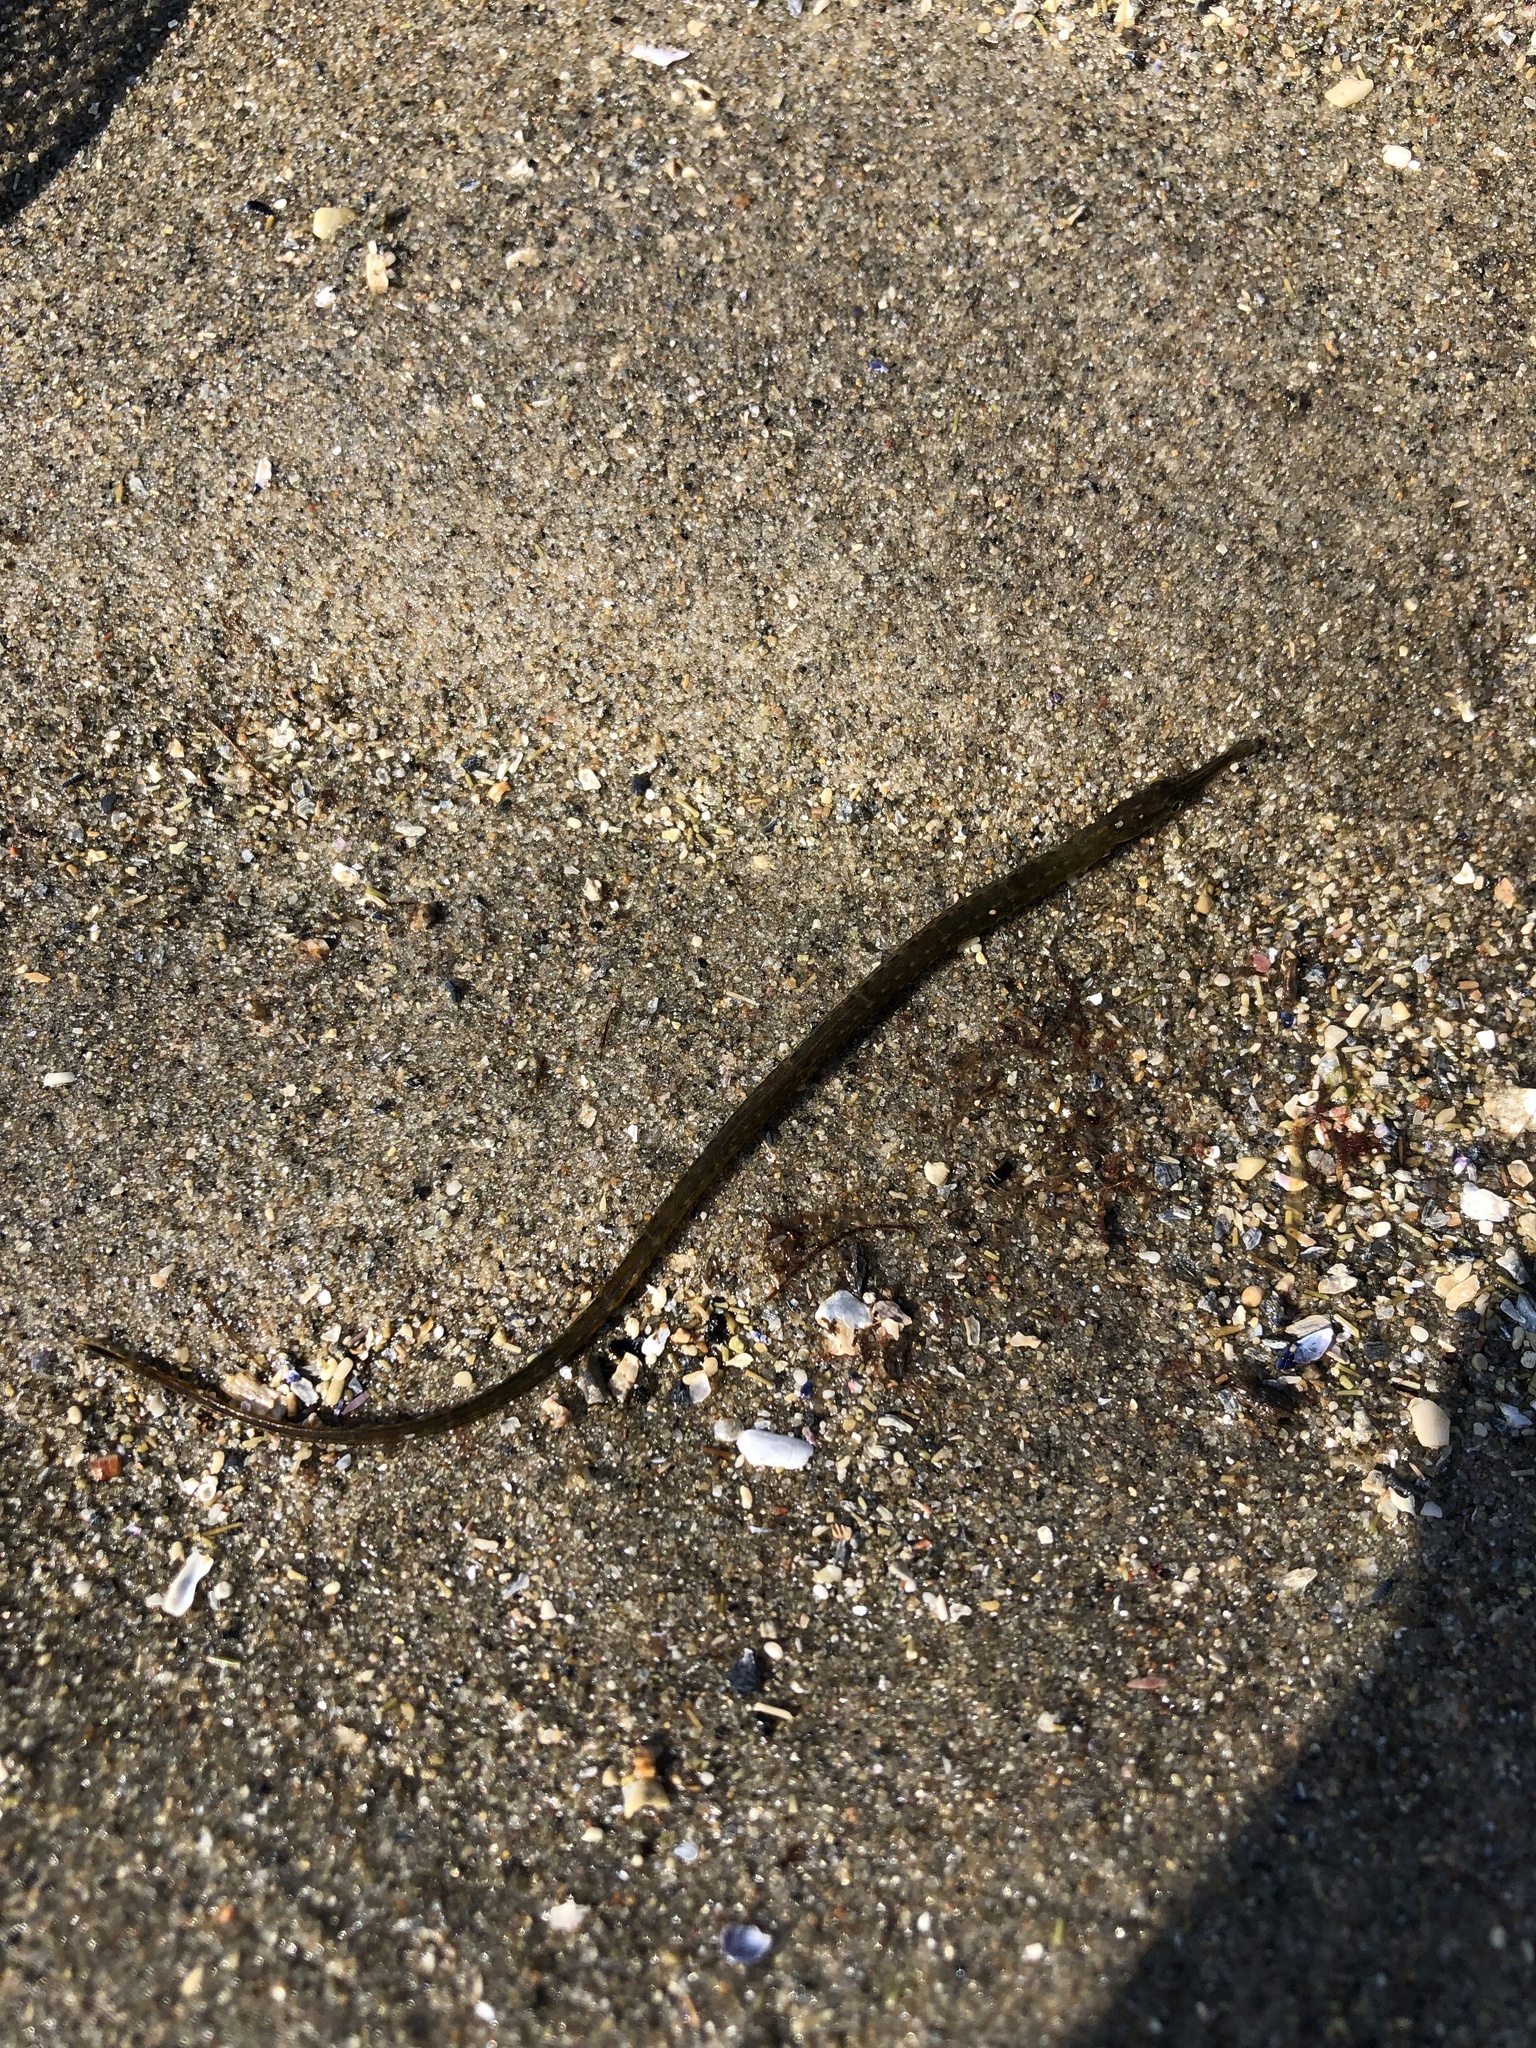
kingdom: Animalia
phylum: Chordata
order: Syngnathiformes
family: Syngnathidae
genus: Syngnathus
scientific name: Syngnathus fuscus
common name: Northern pipefish
